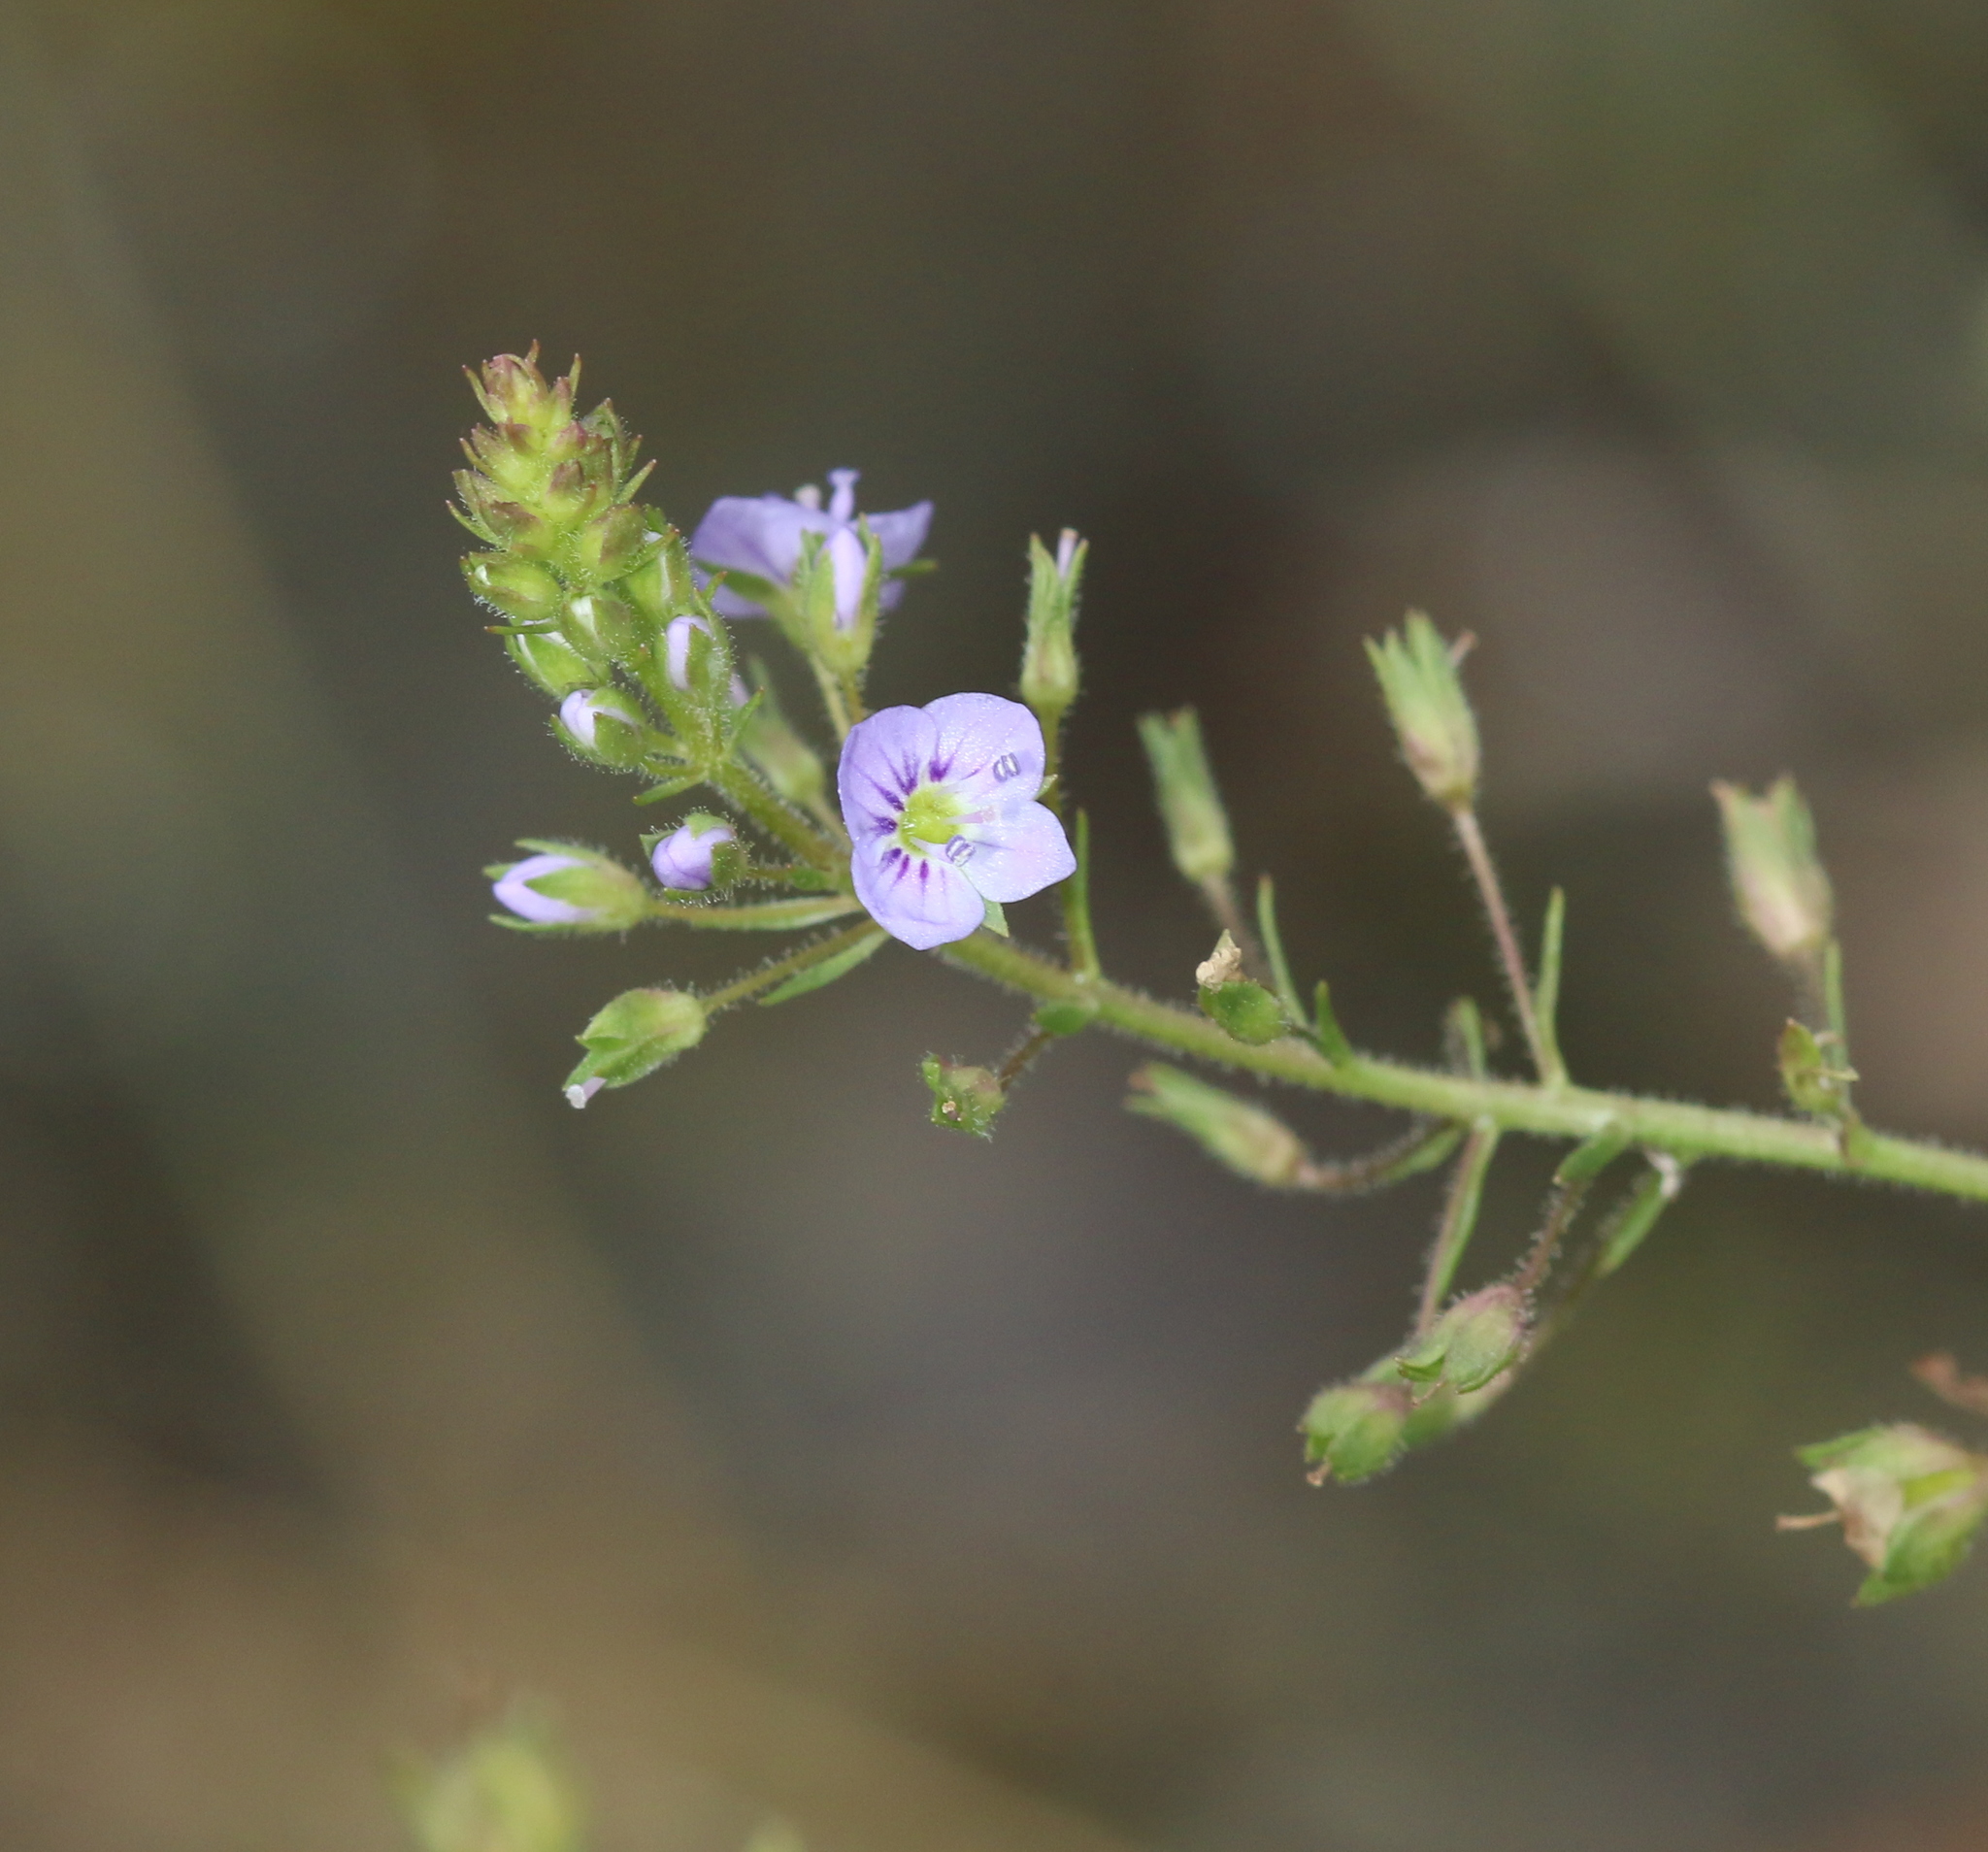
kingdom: Plantae
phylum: Tracheophyta
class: Magnoliopsida
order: Lamiales
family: Plantaginaceae
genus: Veronica
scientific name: Veronica anagallis-aquatica
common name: Water speedwell
